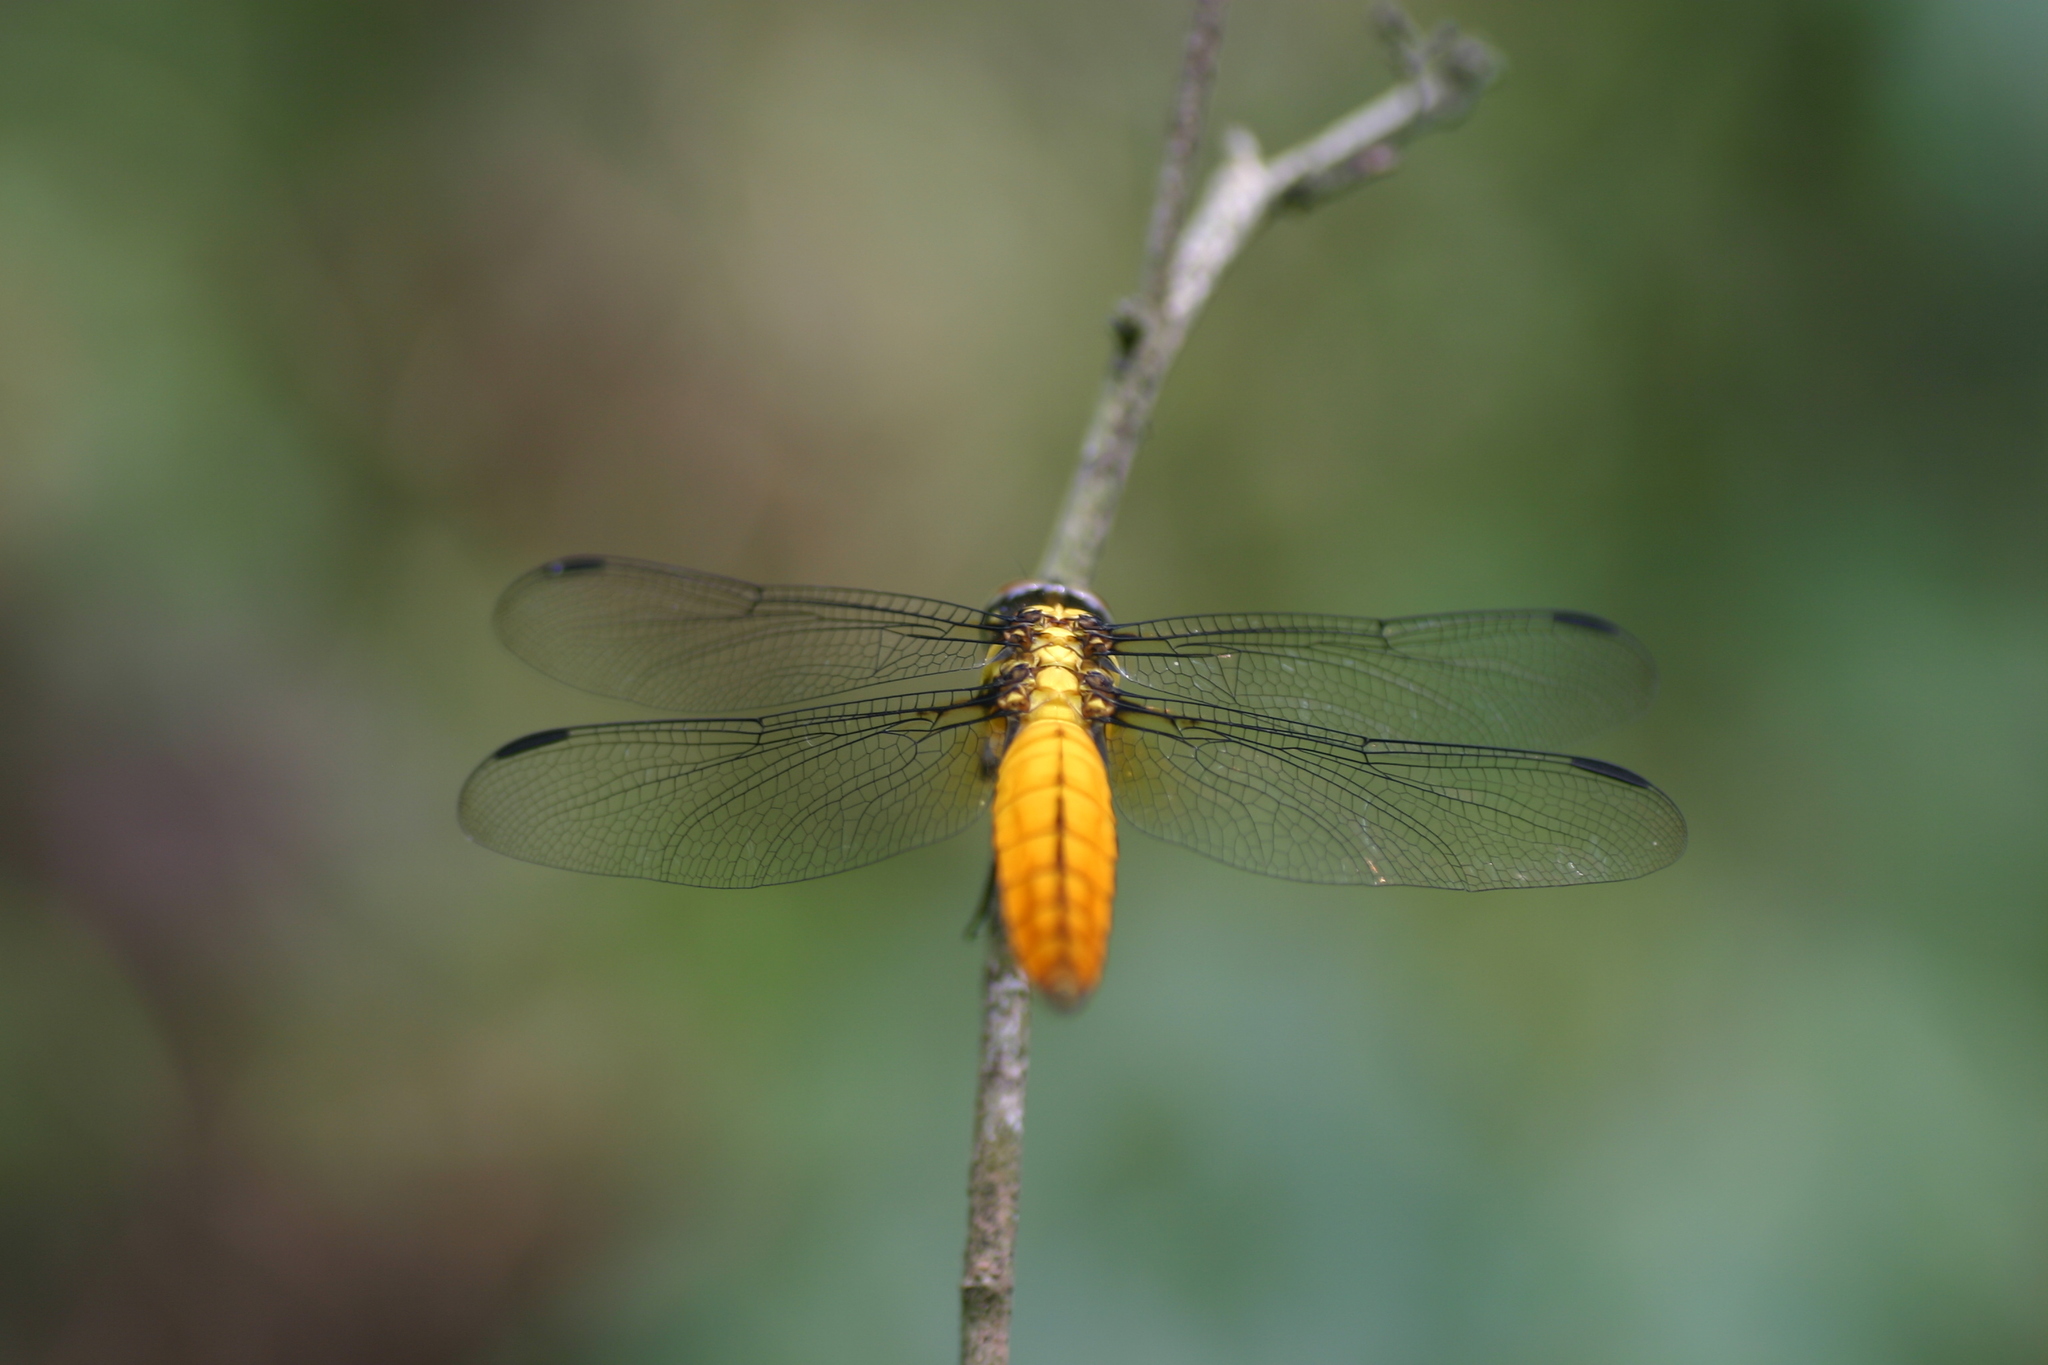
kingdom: Animalia
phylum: Arthropoda
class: Insecta
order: Odonata
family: Libellulidae
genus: Lyriothemis
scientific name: Lyriothemis bivittata
